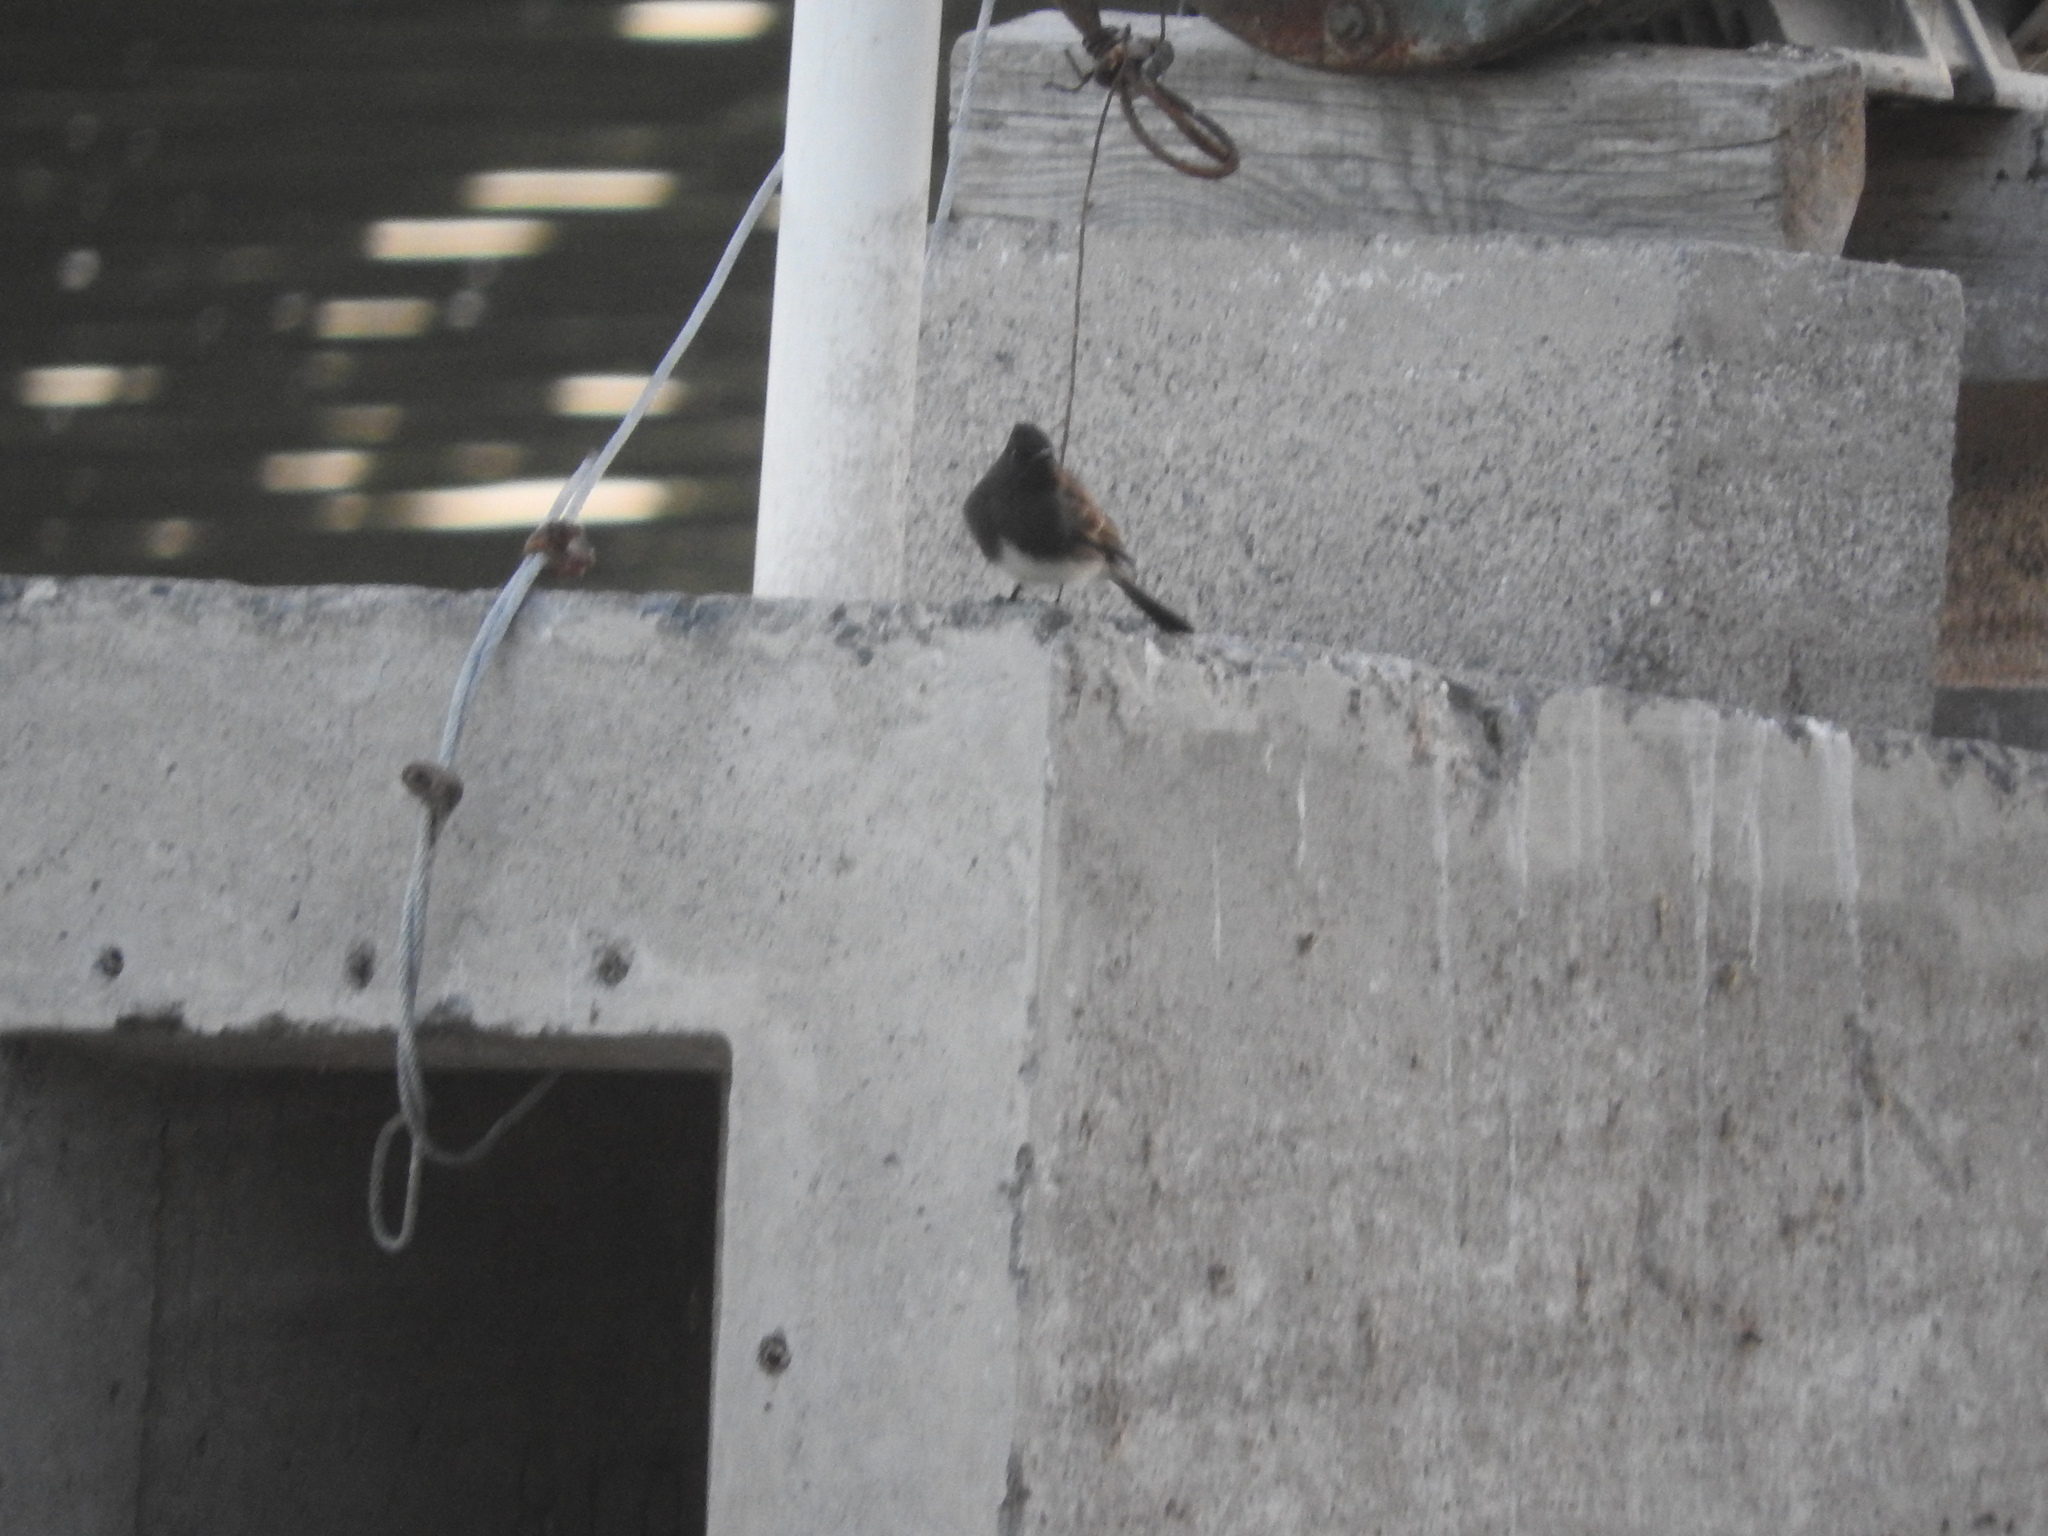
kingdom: Animalia
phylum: Chordata
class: Aves
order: Passeriformes
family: Tyrannidae
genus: Sayornis
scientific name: Sayornis nigricans
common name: Black phoebe
